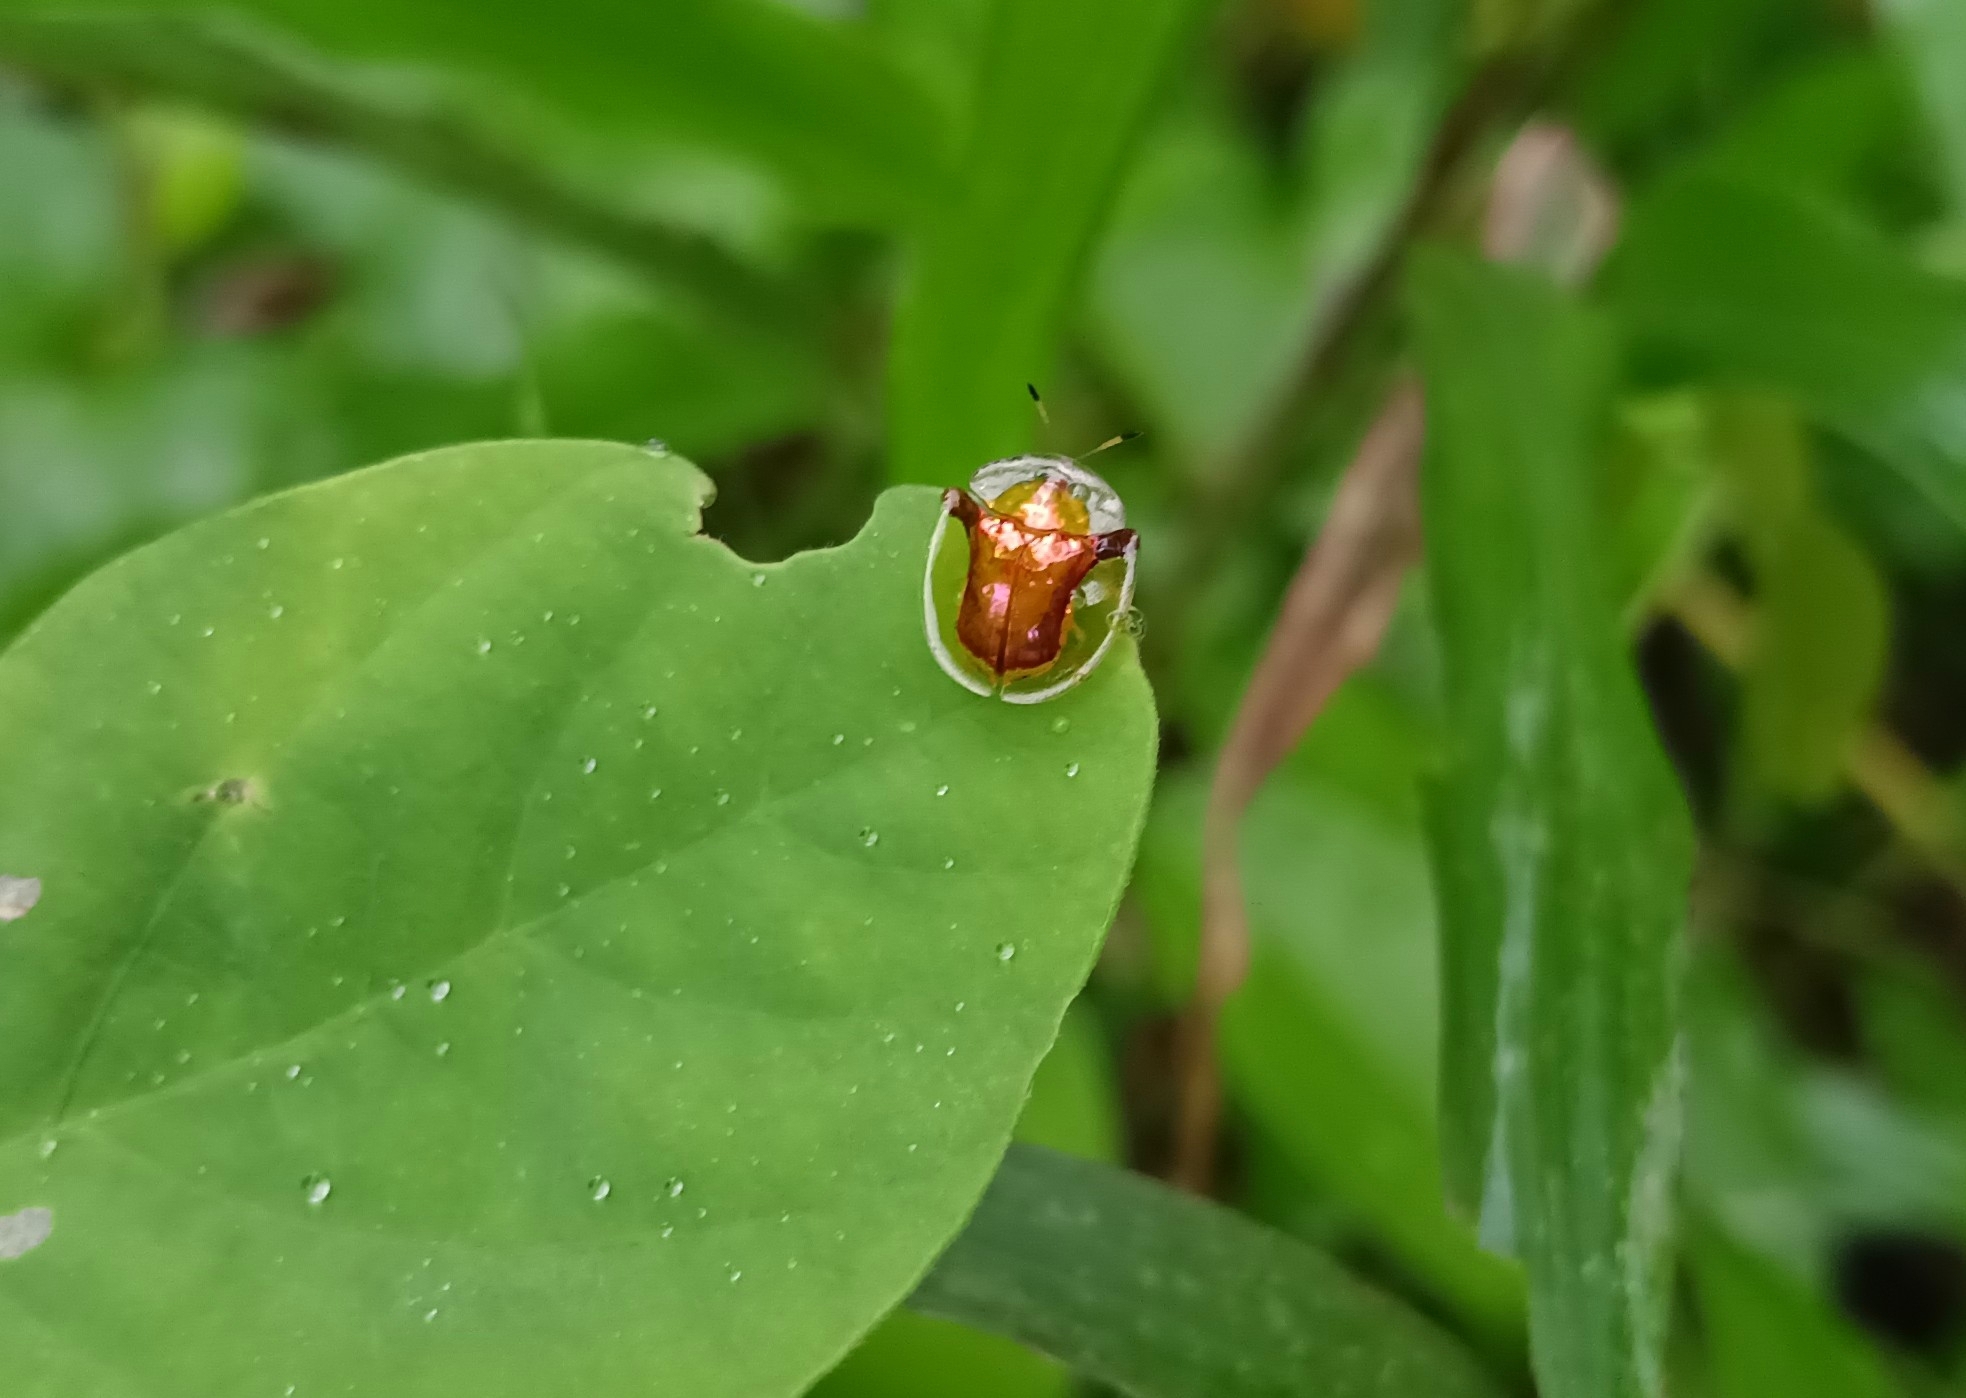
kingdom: Animalia
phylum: Arthropoda
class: Insecta
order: Coleoptera
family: Chrysomelidae
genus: Aspidimorpha
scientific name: Aspidimorpha furcata
